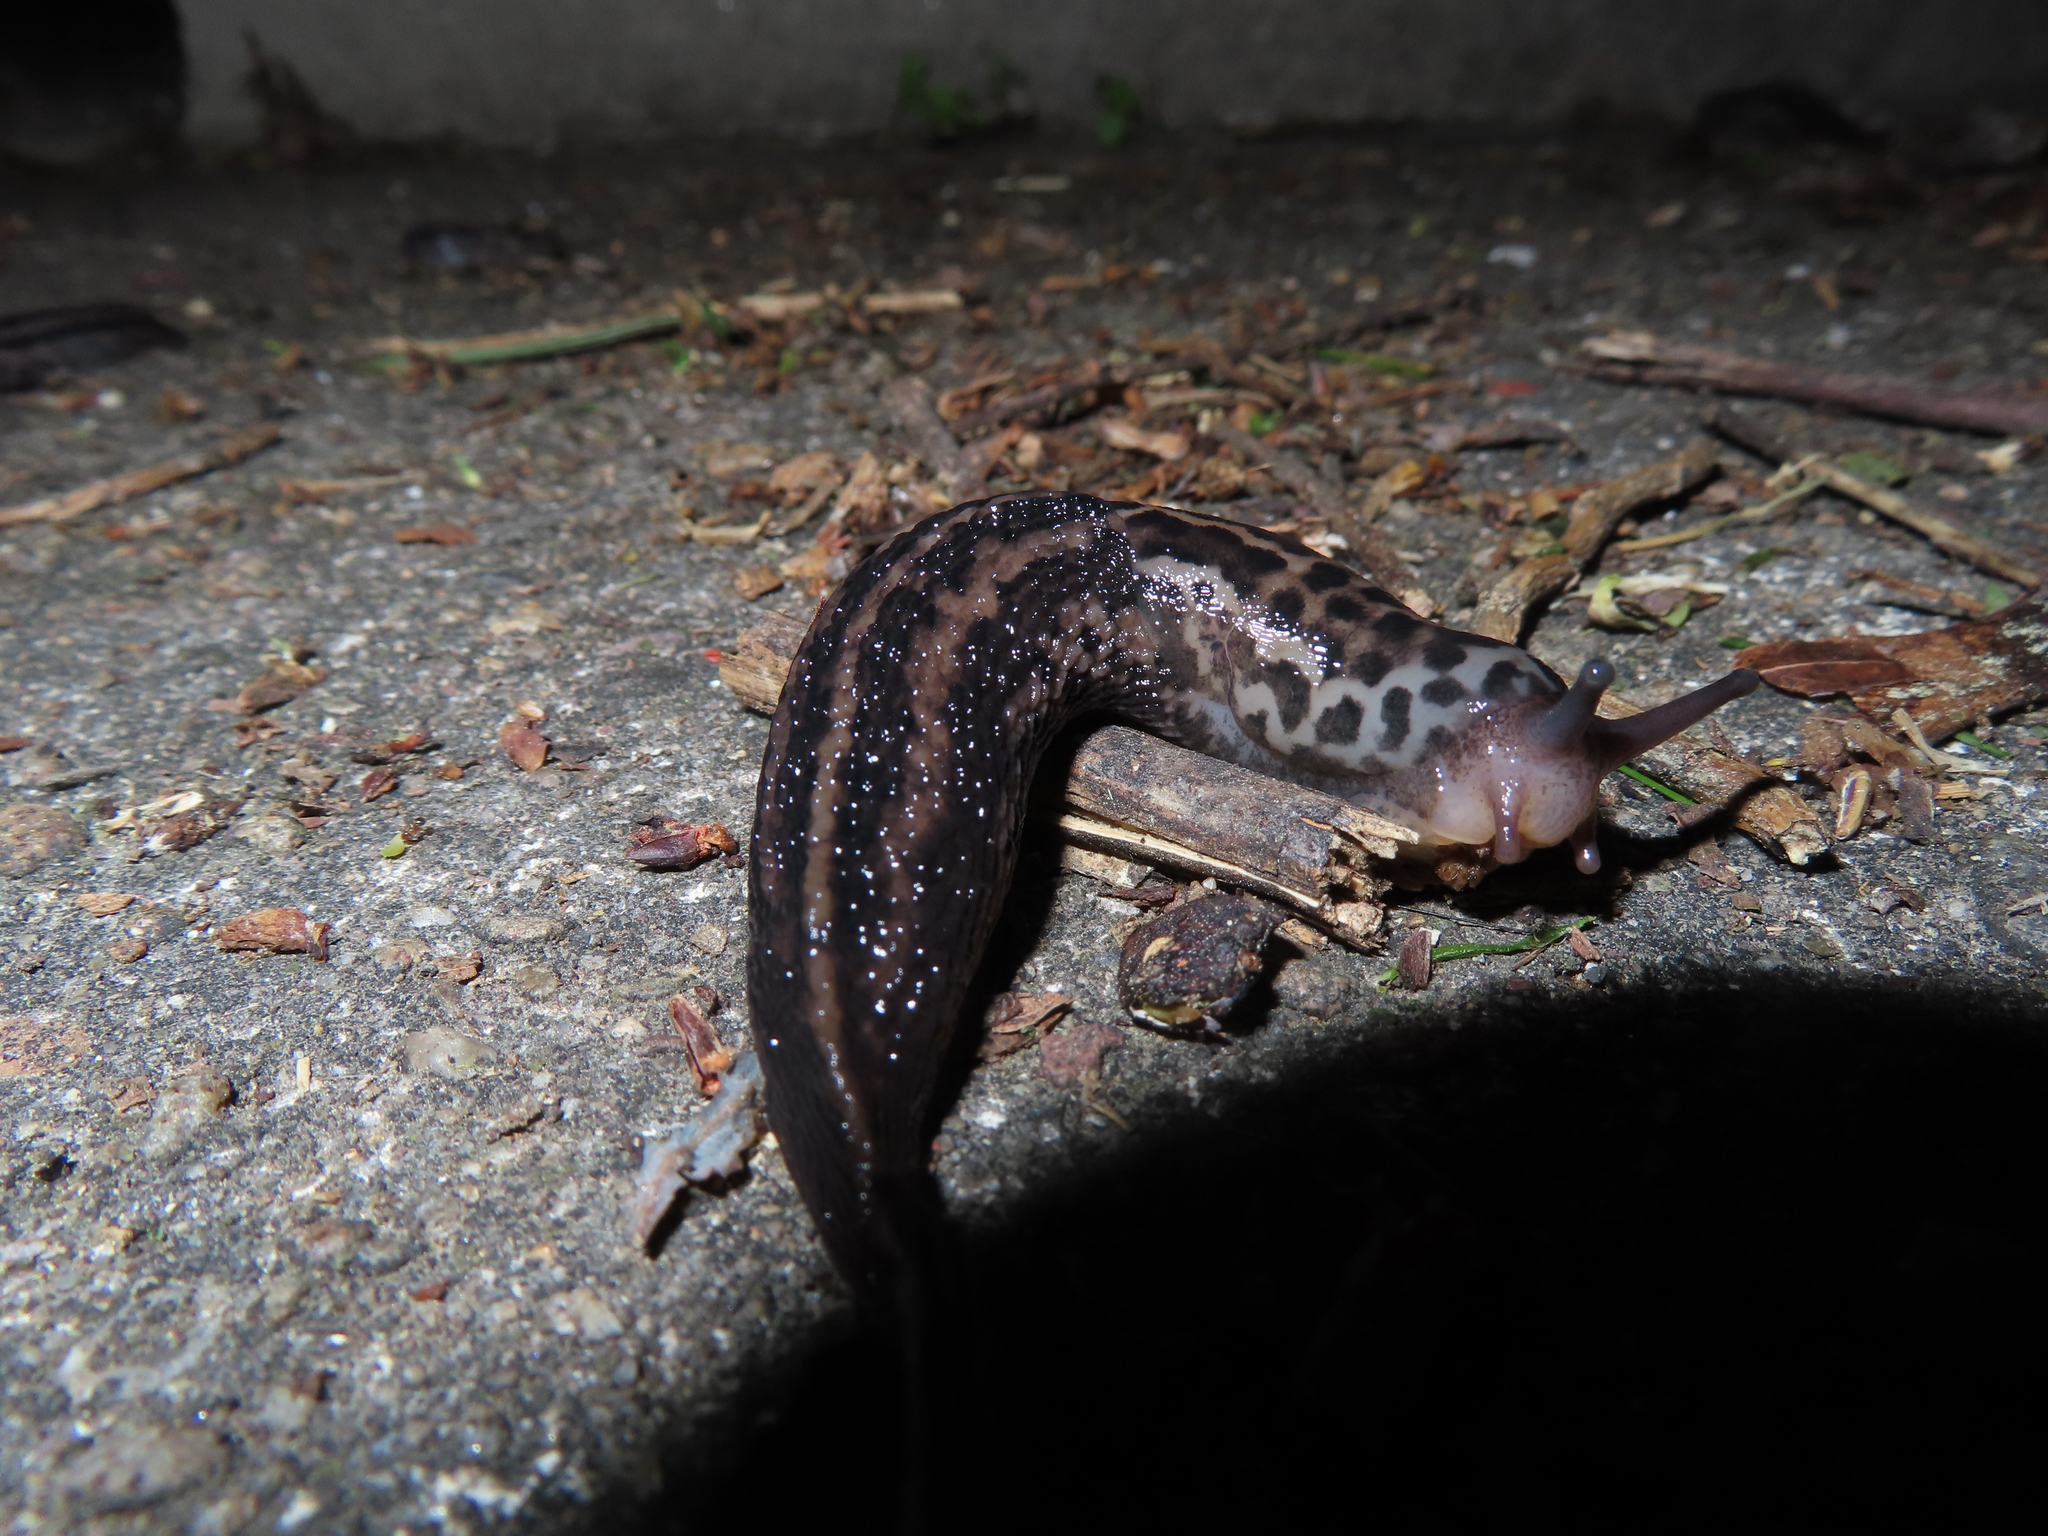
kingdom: Animalia
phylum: Mollusca
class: Gastropoda
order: Stylommatophora
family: Limacidae
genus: Limax
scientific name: Limax maximus
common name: Great grey slug
